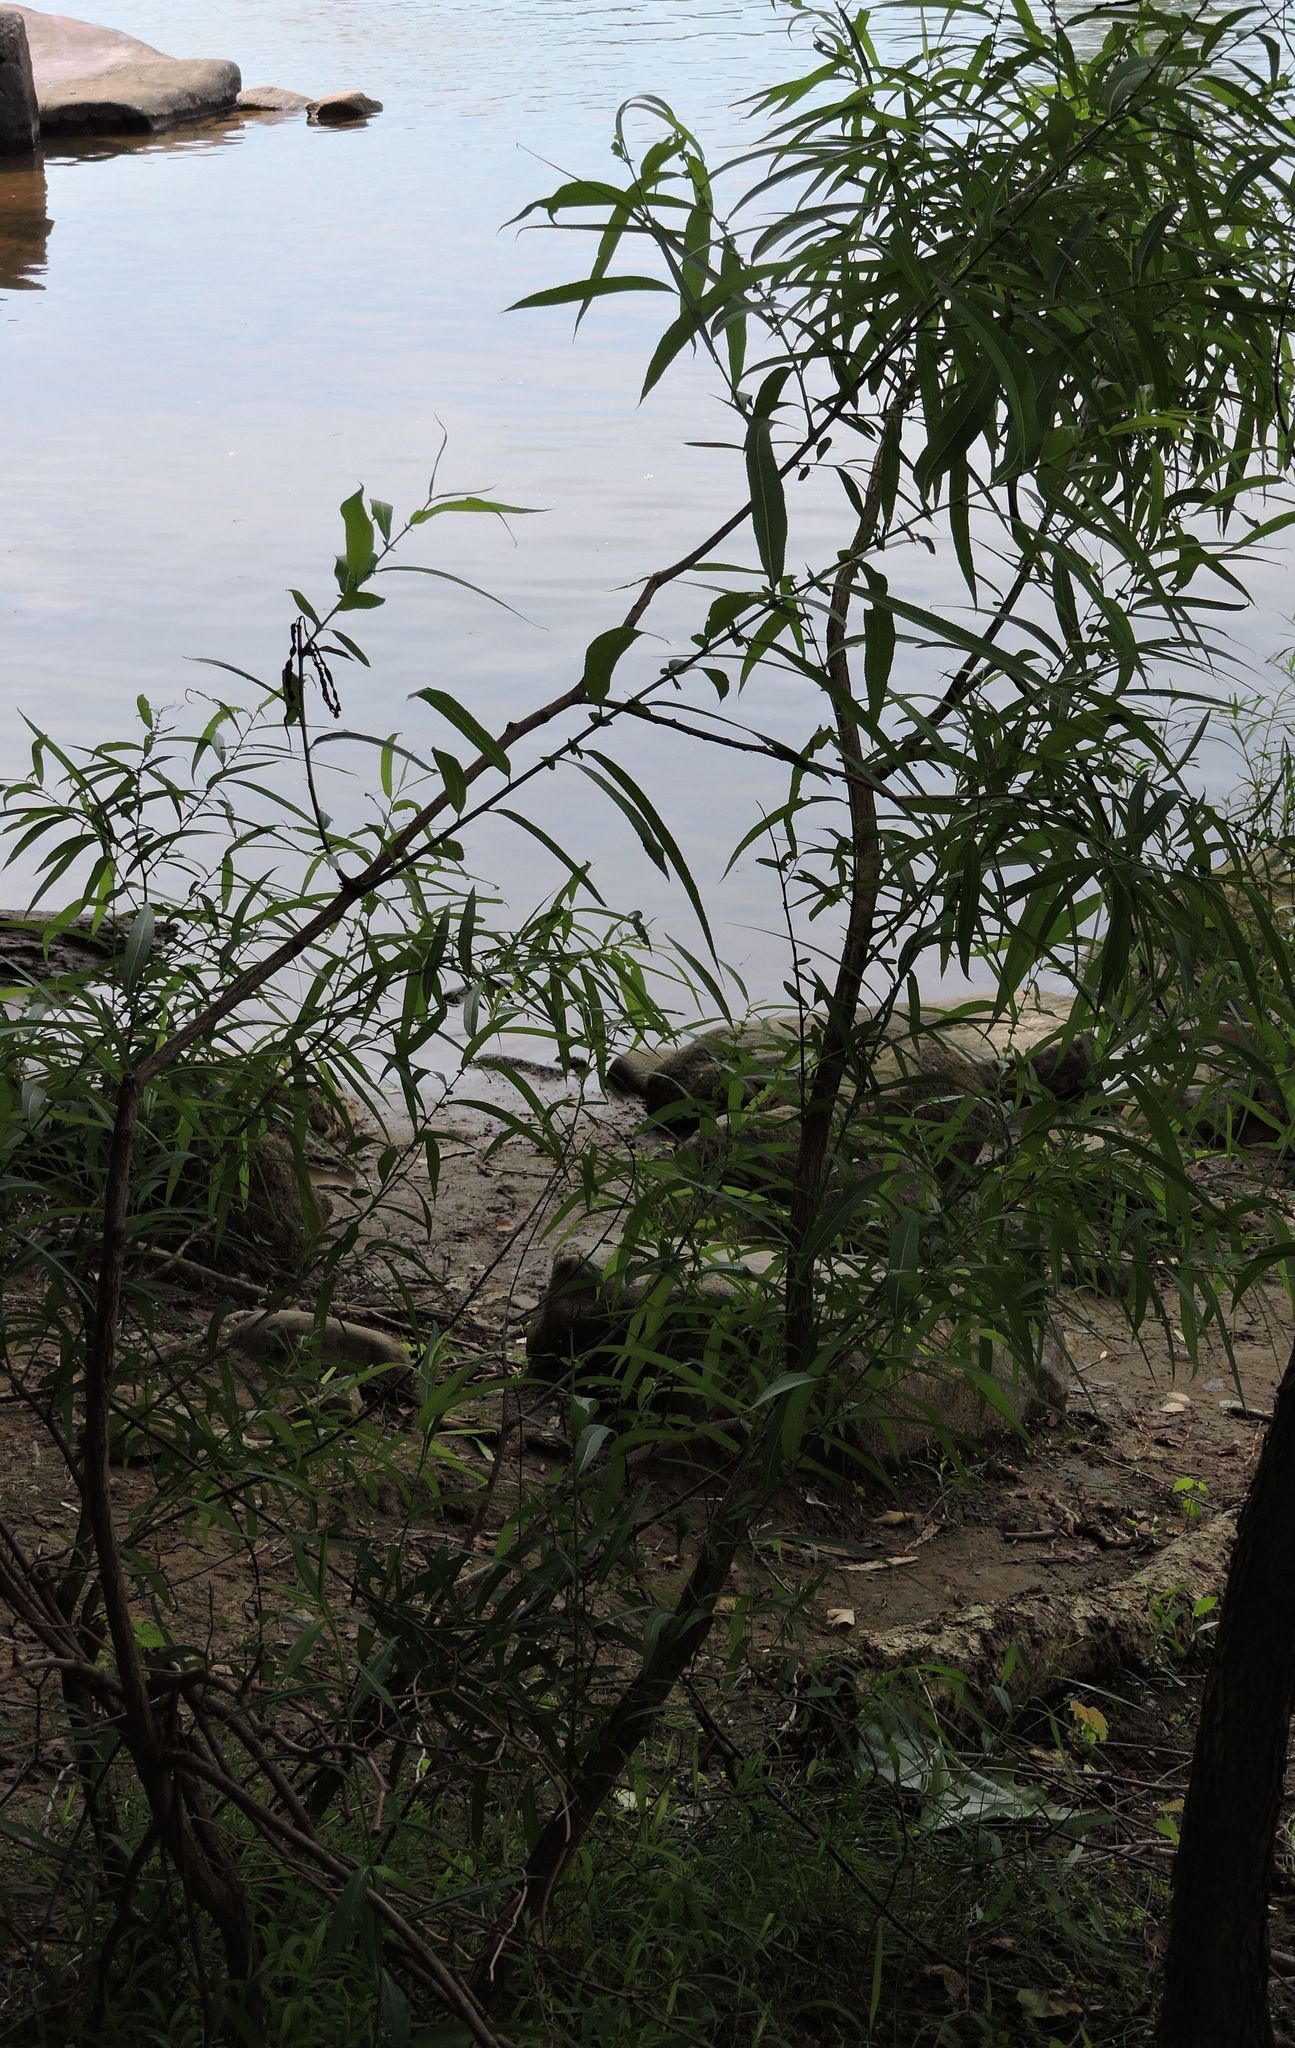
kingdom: Plantae
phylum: Tracheophyta
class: Magnoliopsida
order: Malpighiales
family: Salicaceae
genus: Salix
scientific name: Salix nigra
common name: Black willow
